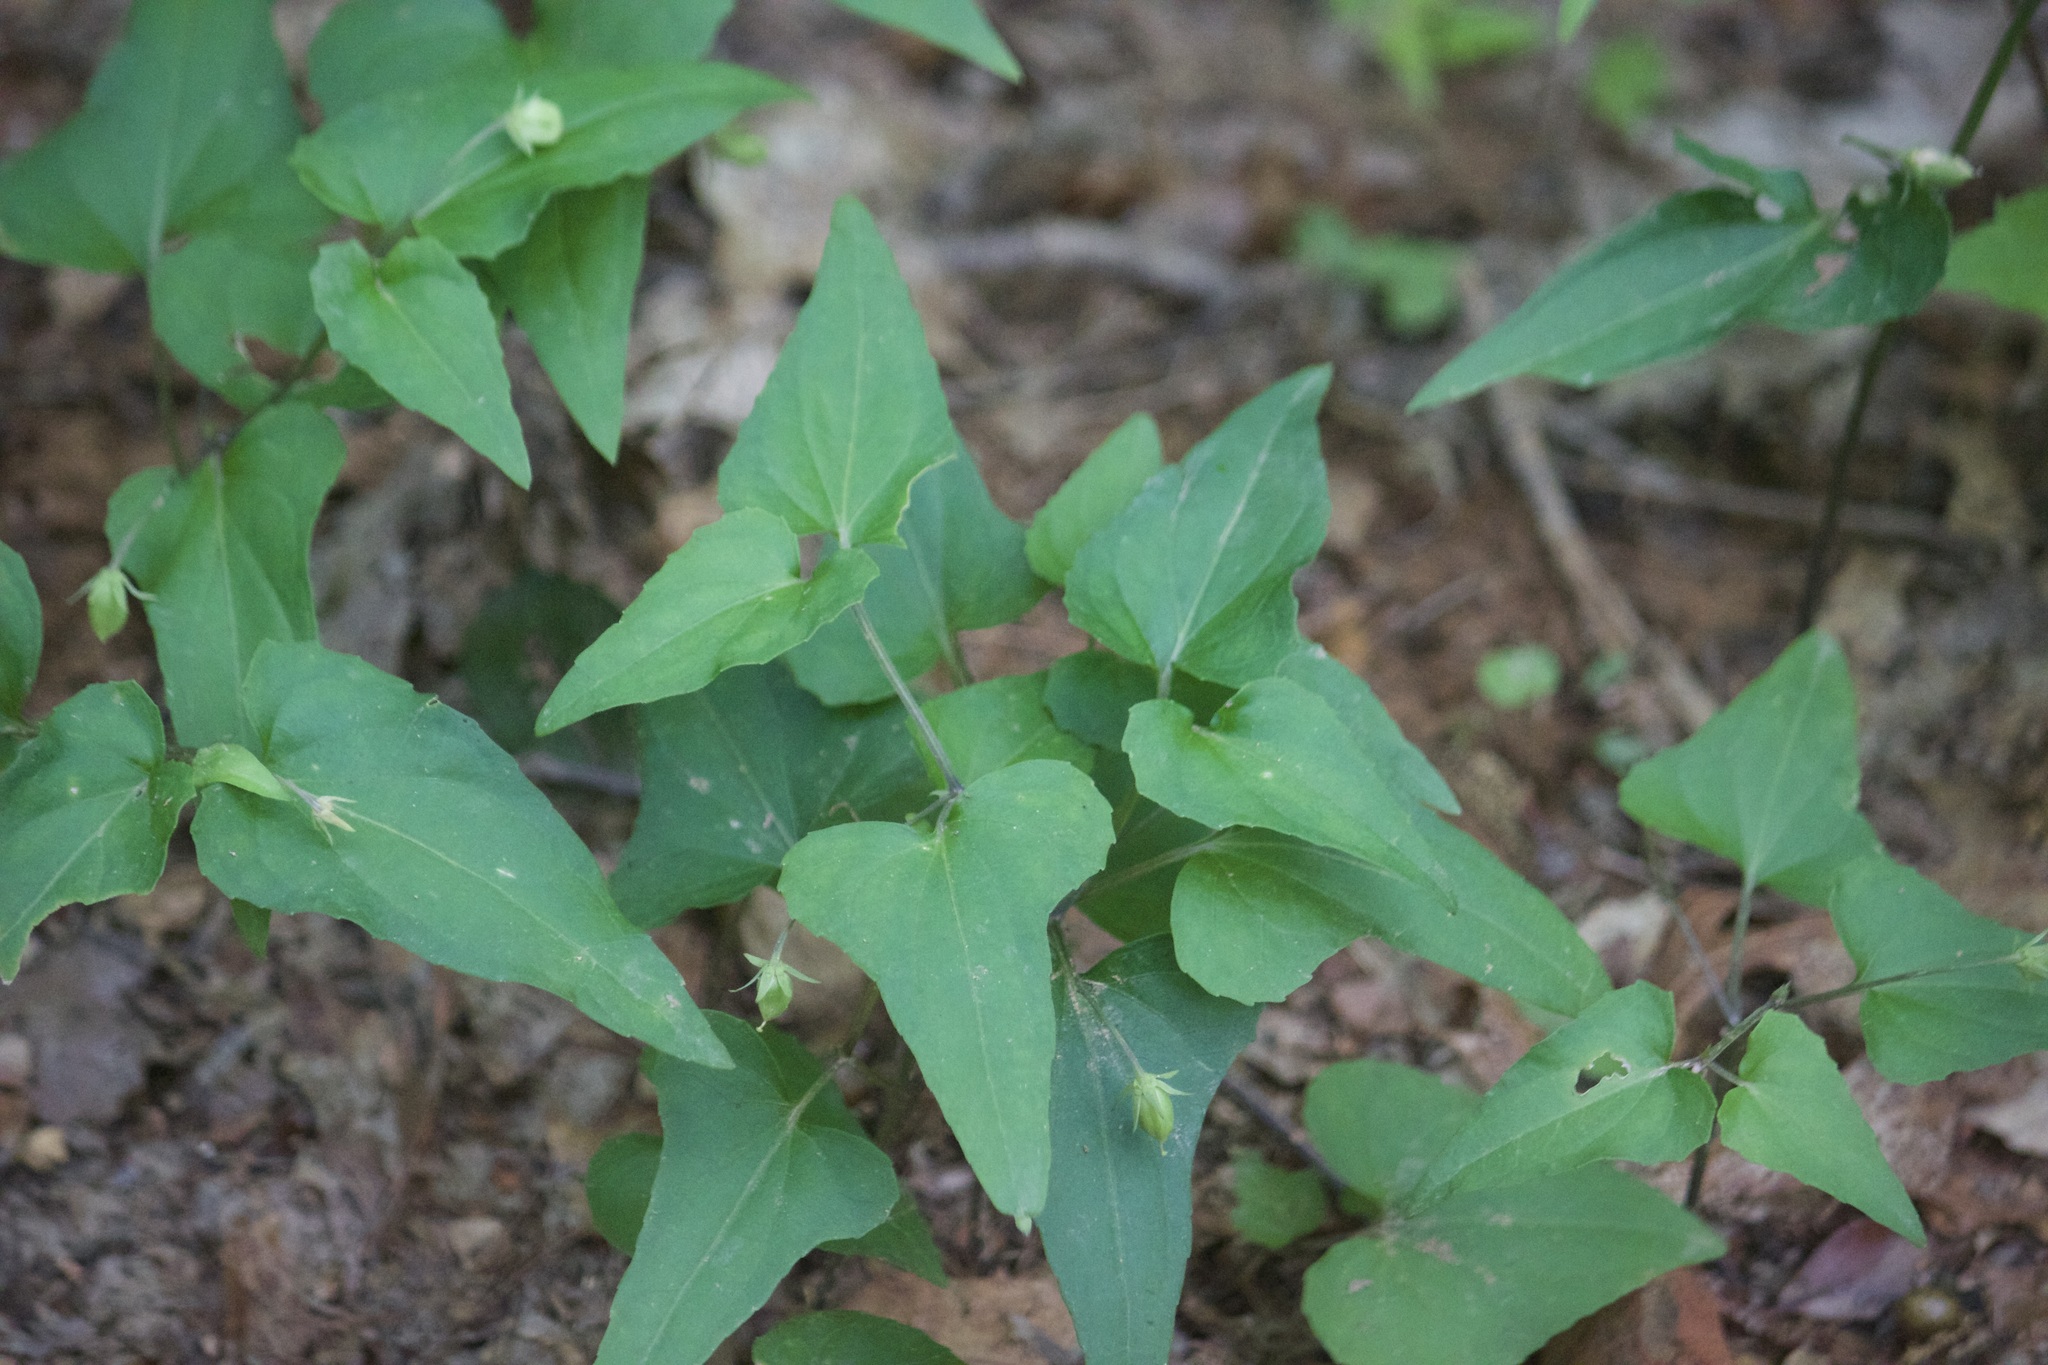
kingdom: Plantae
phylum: Tracheophyta
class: Magnoliopsida
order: Malpighiales
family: Violaceae
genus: Viola
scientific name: Viola hastata
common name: Spear-leaf violet
